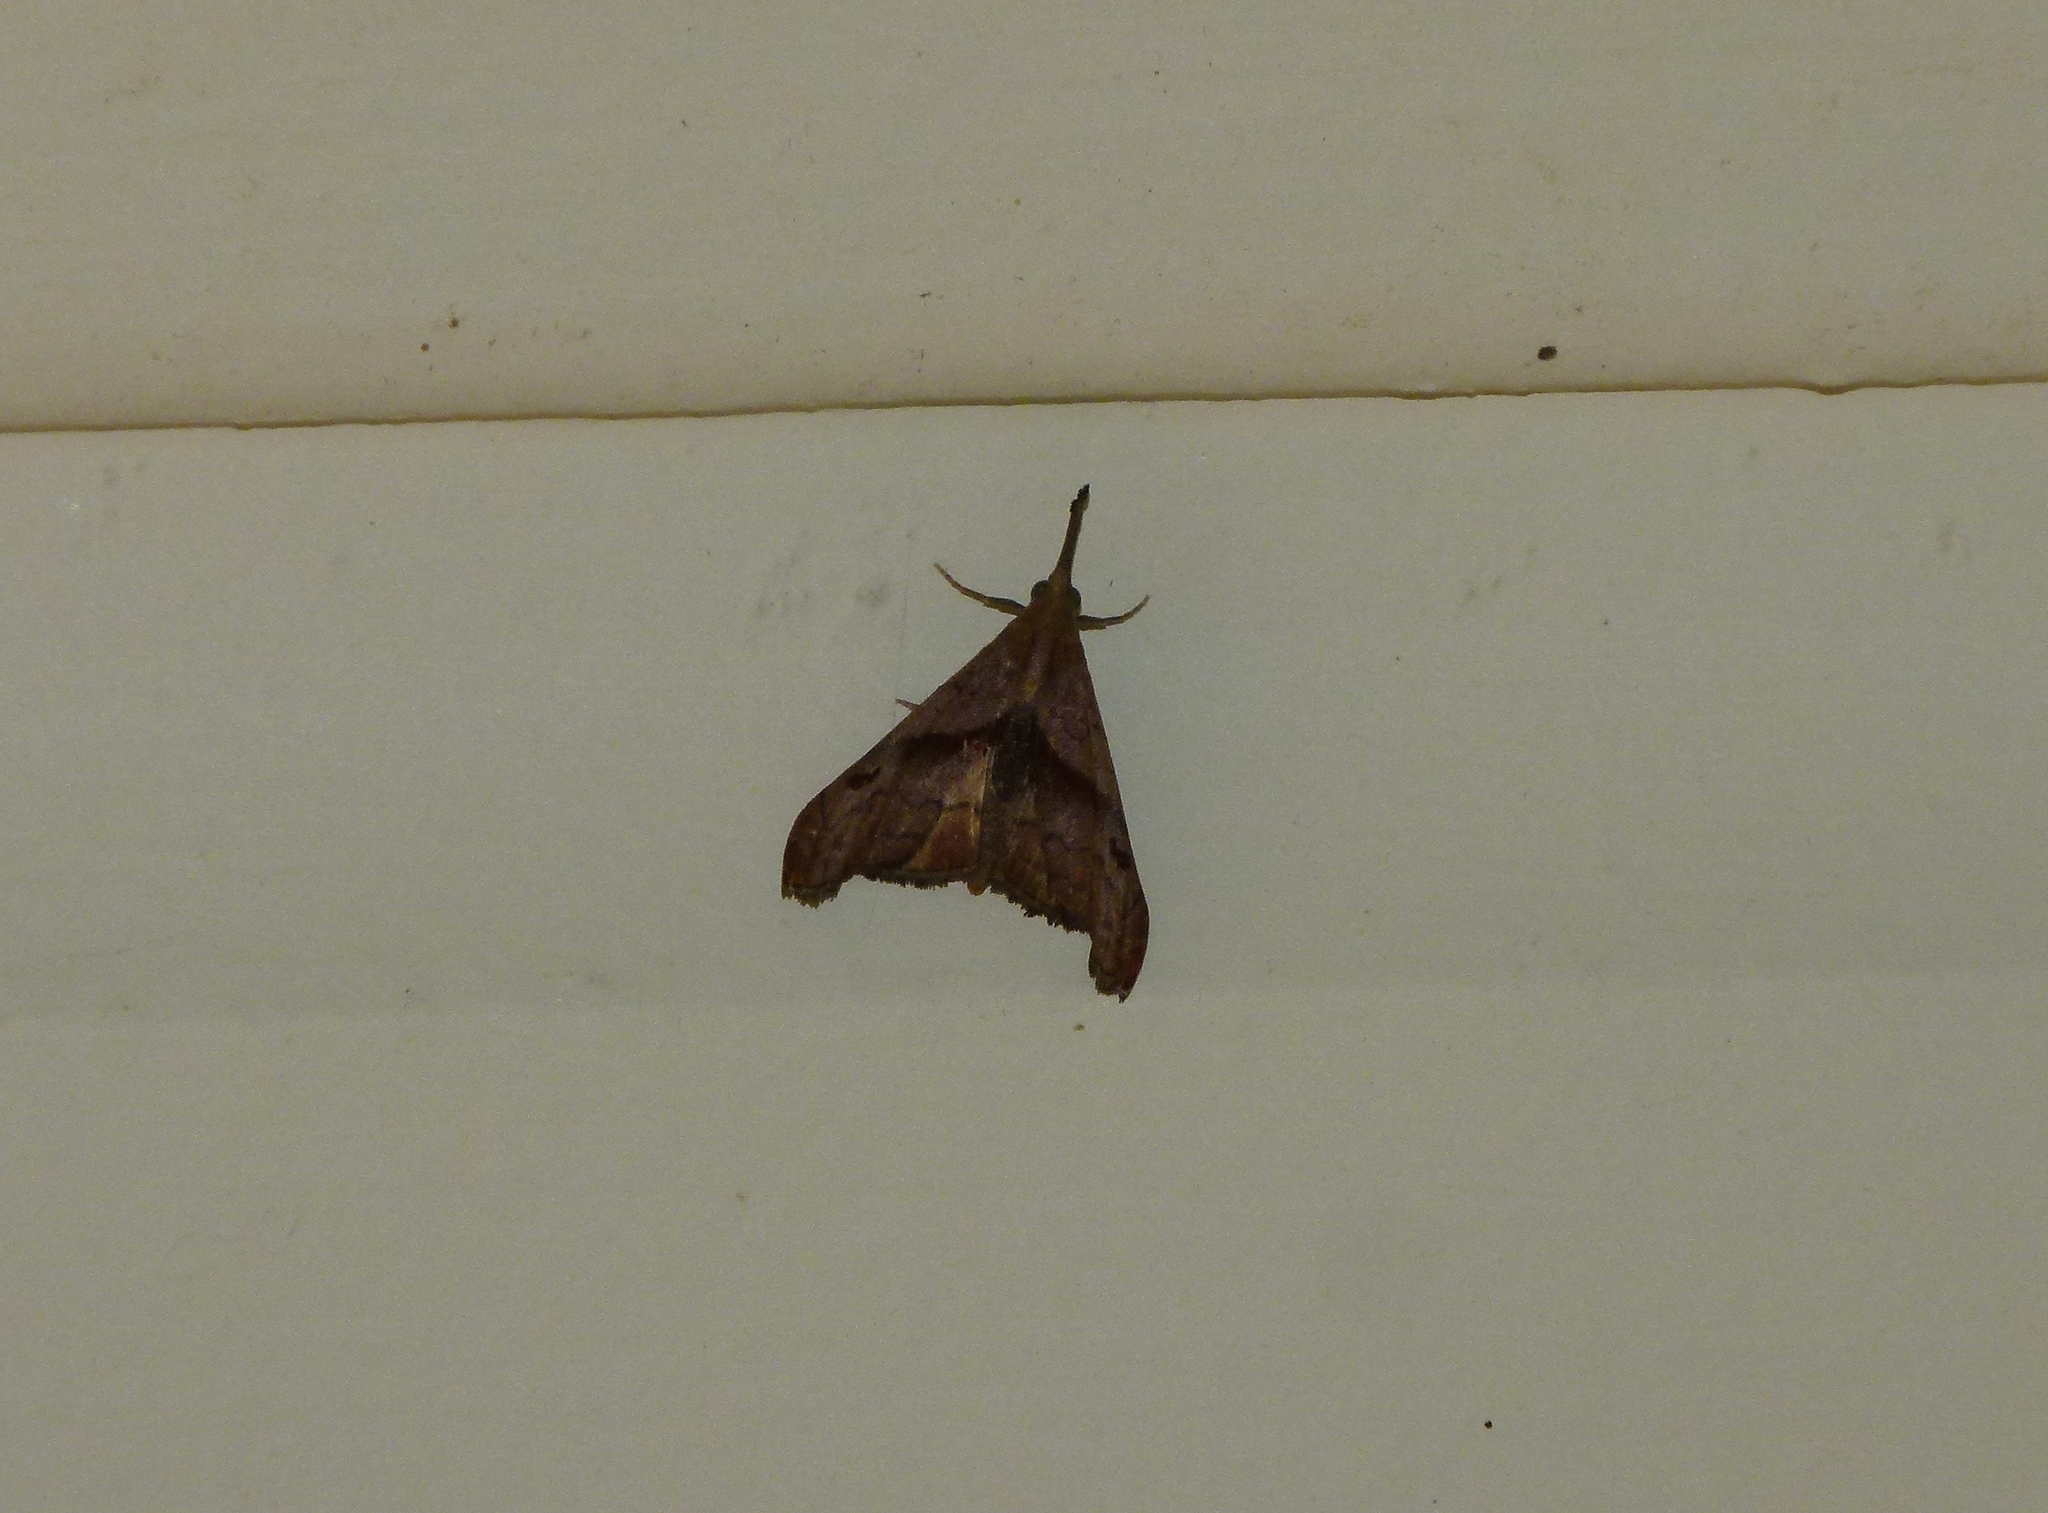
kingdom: Animalia
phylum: Arthropoda
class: Insecta
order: Lepidoptera
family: Erebidae
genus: Palthis
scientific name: Palthis angulalis
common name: Dark-spotted palthis moth
